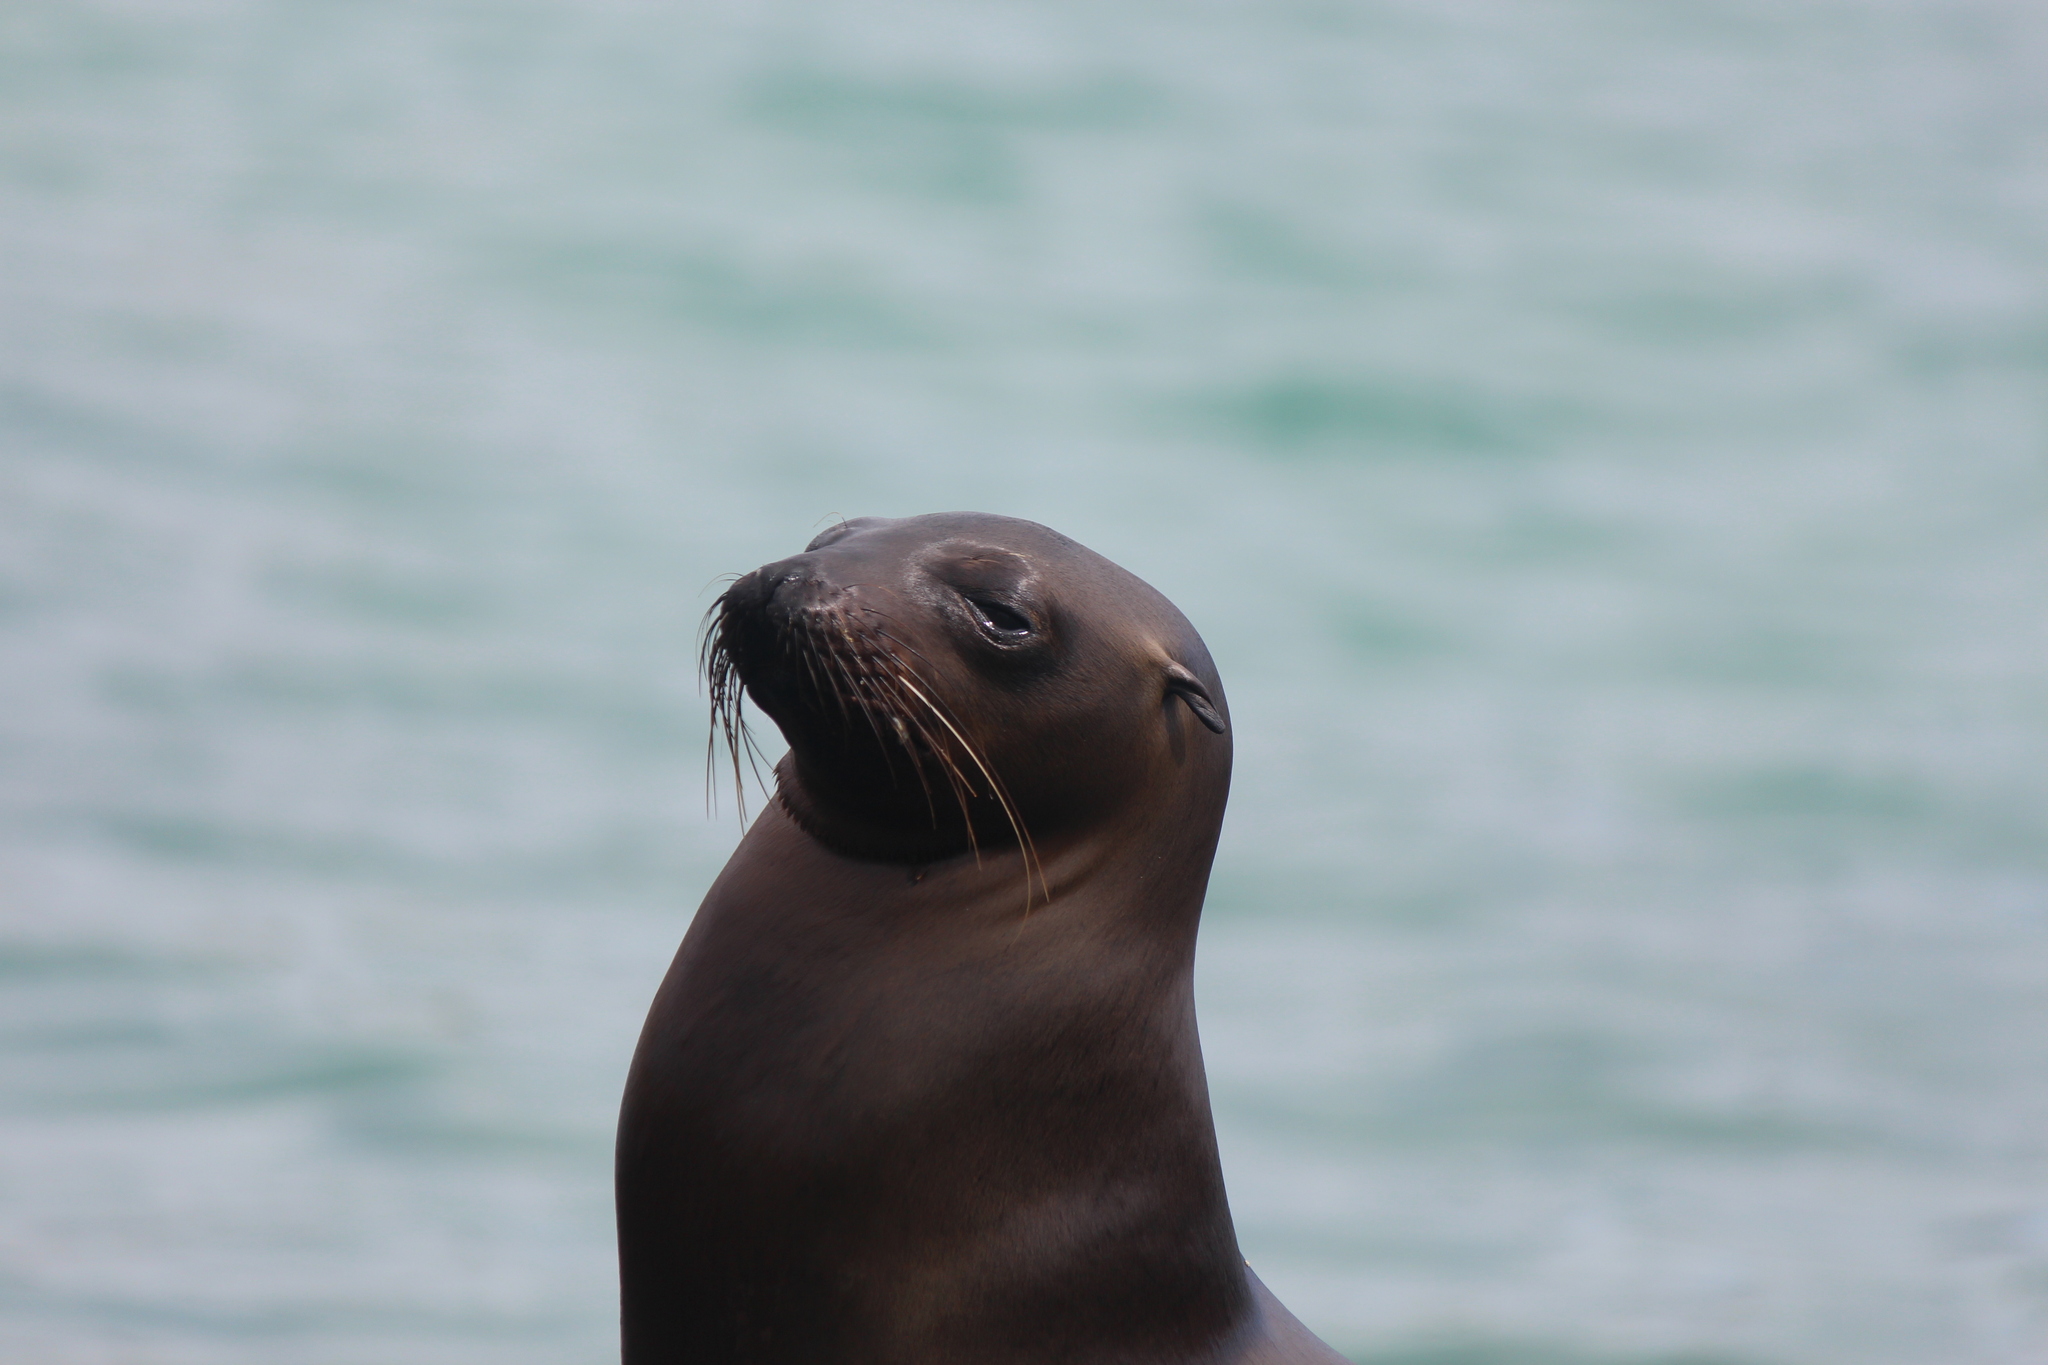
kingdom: Animalia
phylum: Chordata
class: Mammalia
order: Carnivora
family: Otariidae
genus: Zalophus
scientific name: Zalophus wollebaeki
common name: Galapagos sea lion
